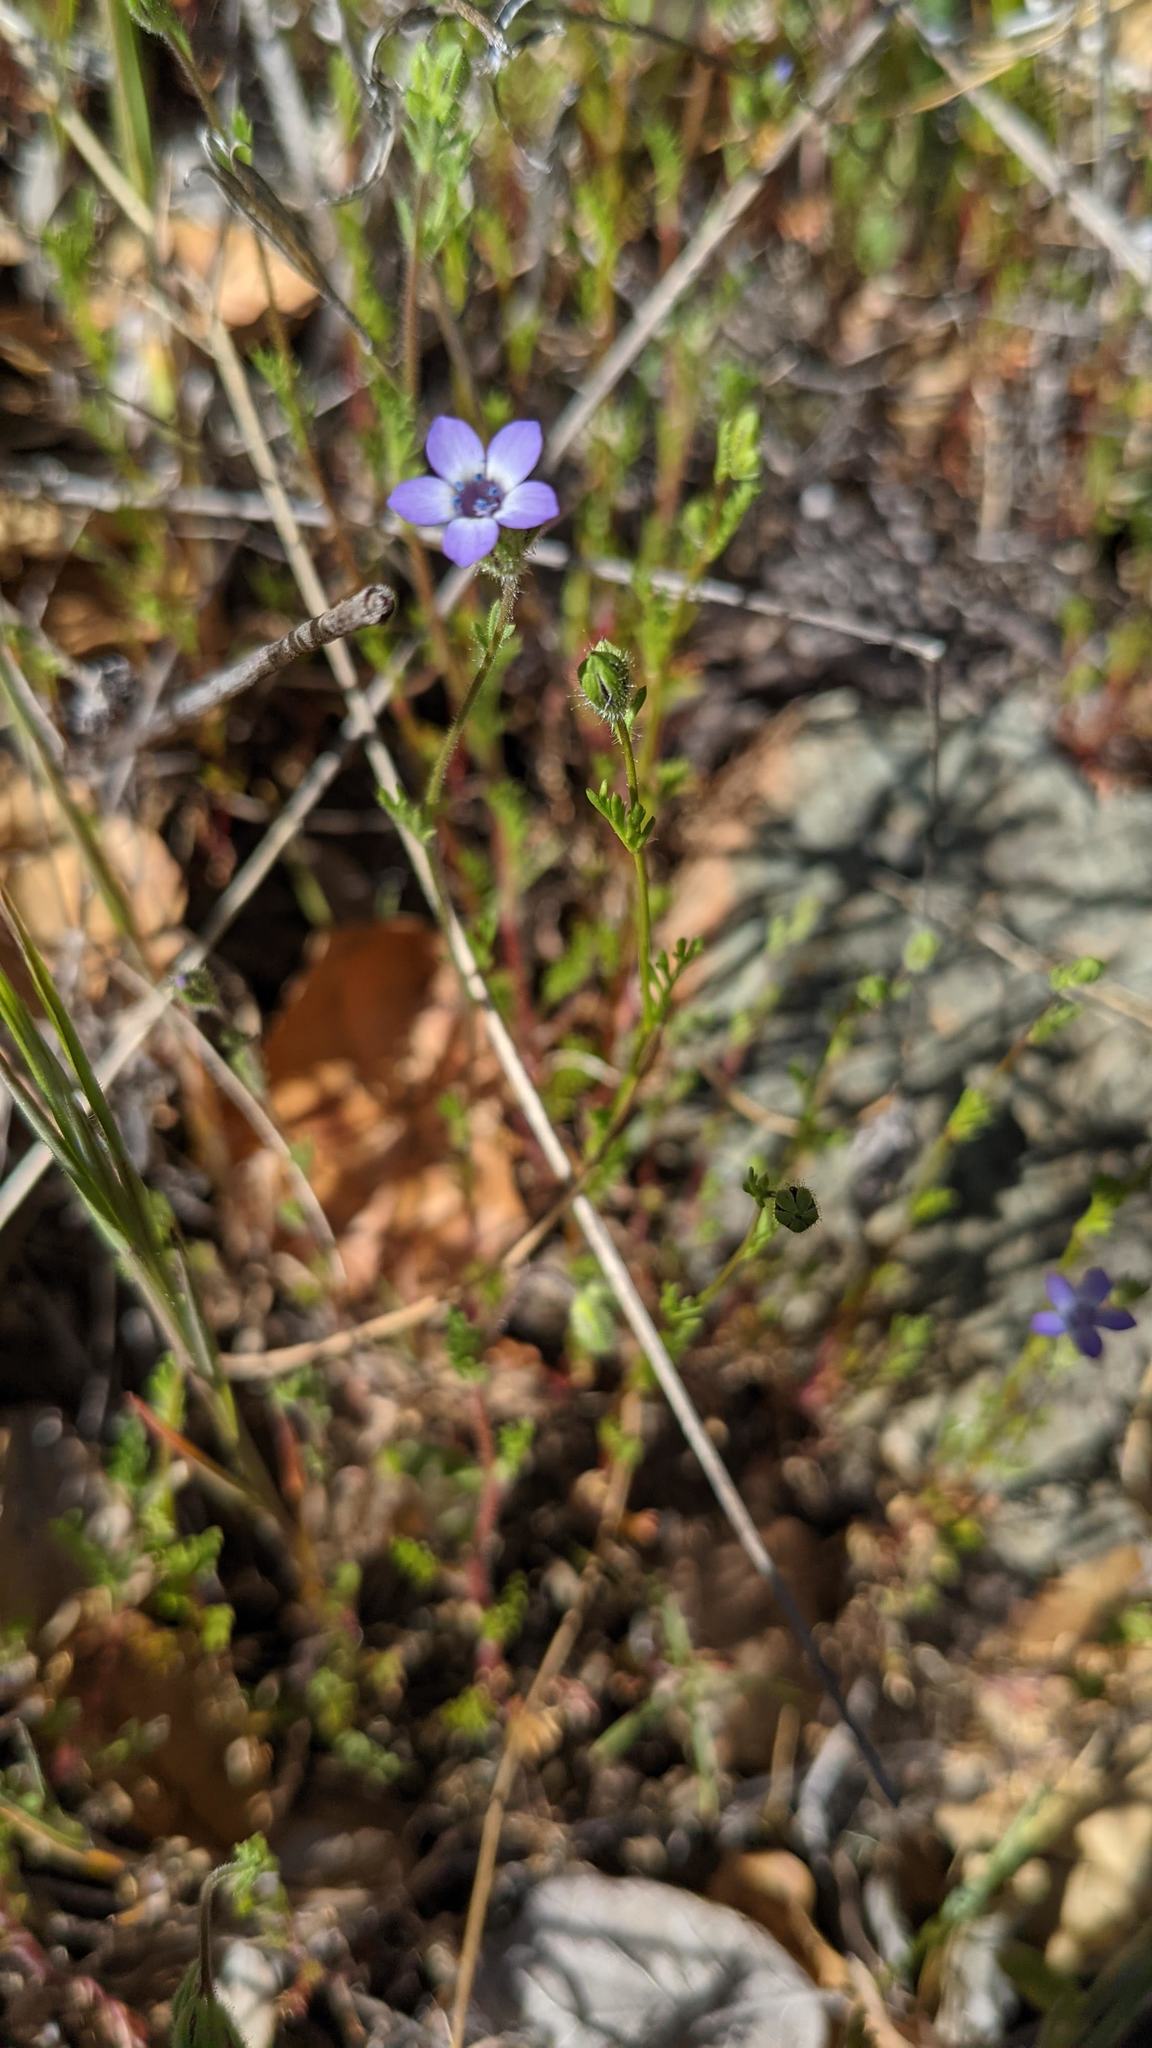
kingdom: Plantae
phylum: Tracheophyta
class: Magnoliopsida
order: Ericales
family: Polemoniaceae
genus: Gilia
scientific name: Gilia clivorum
